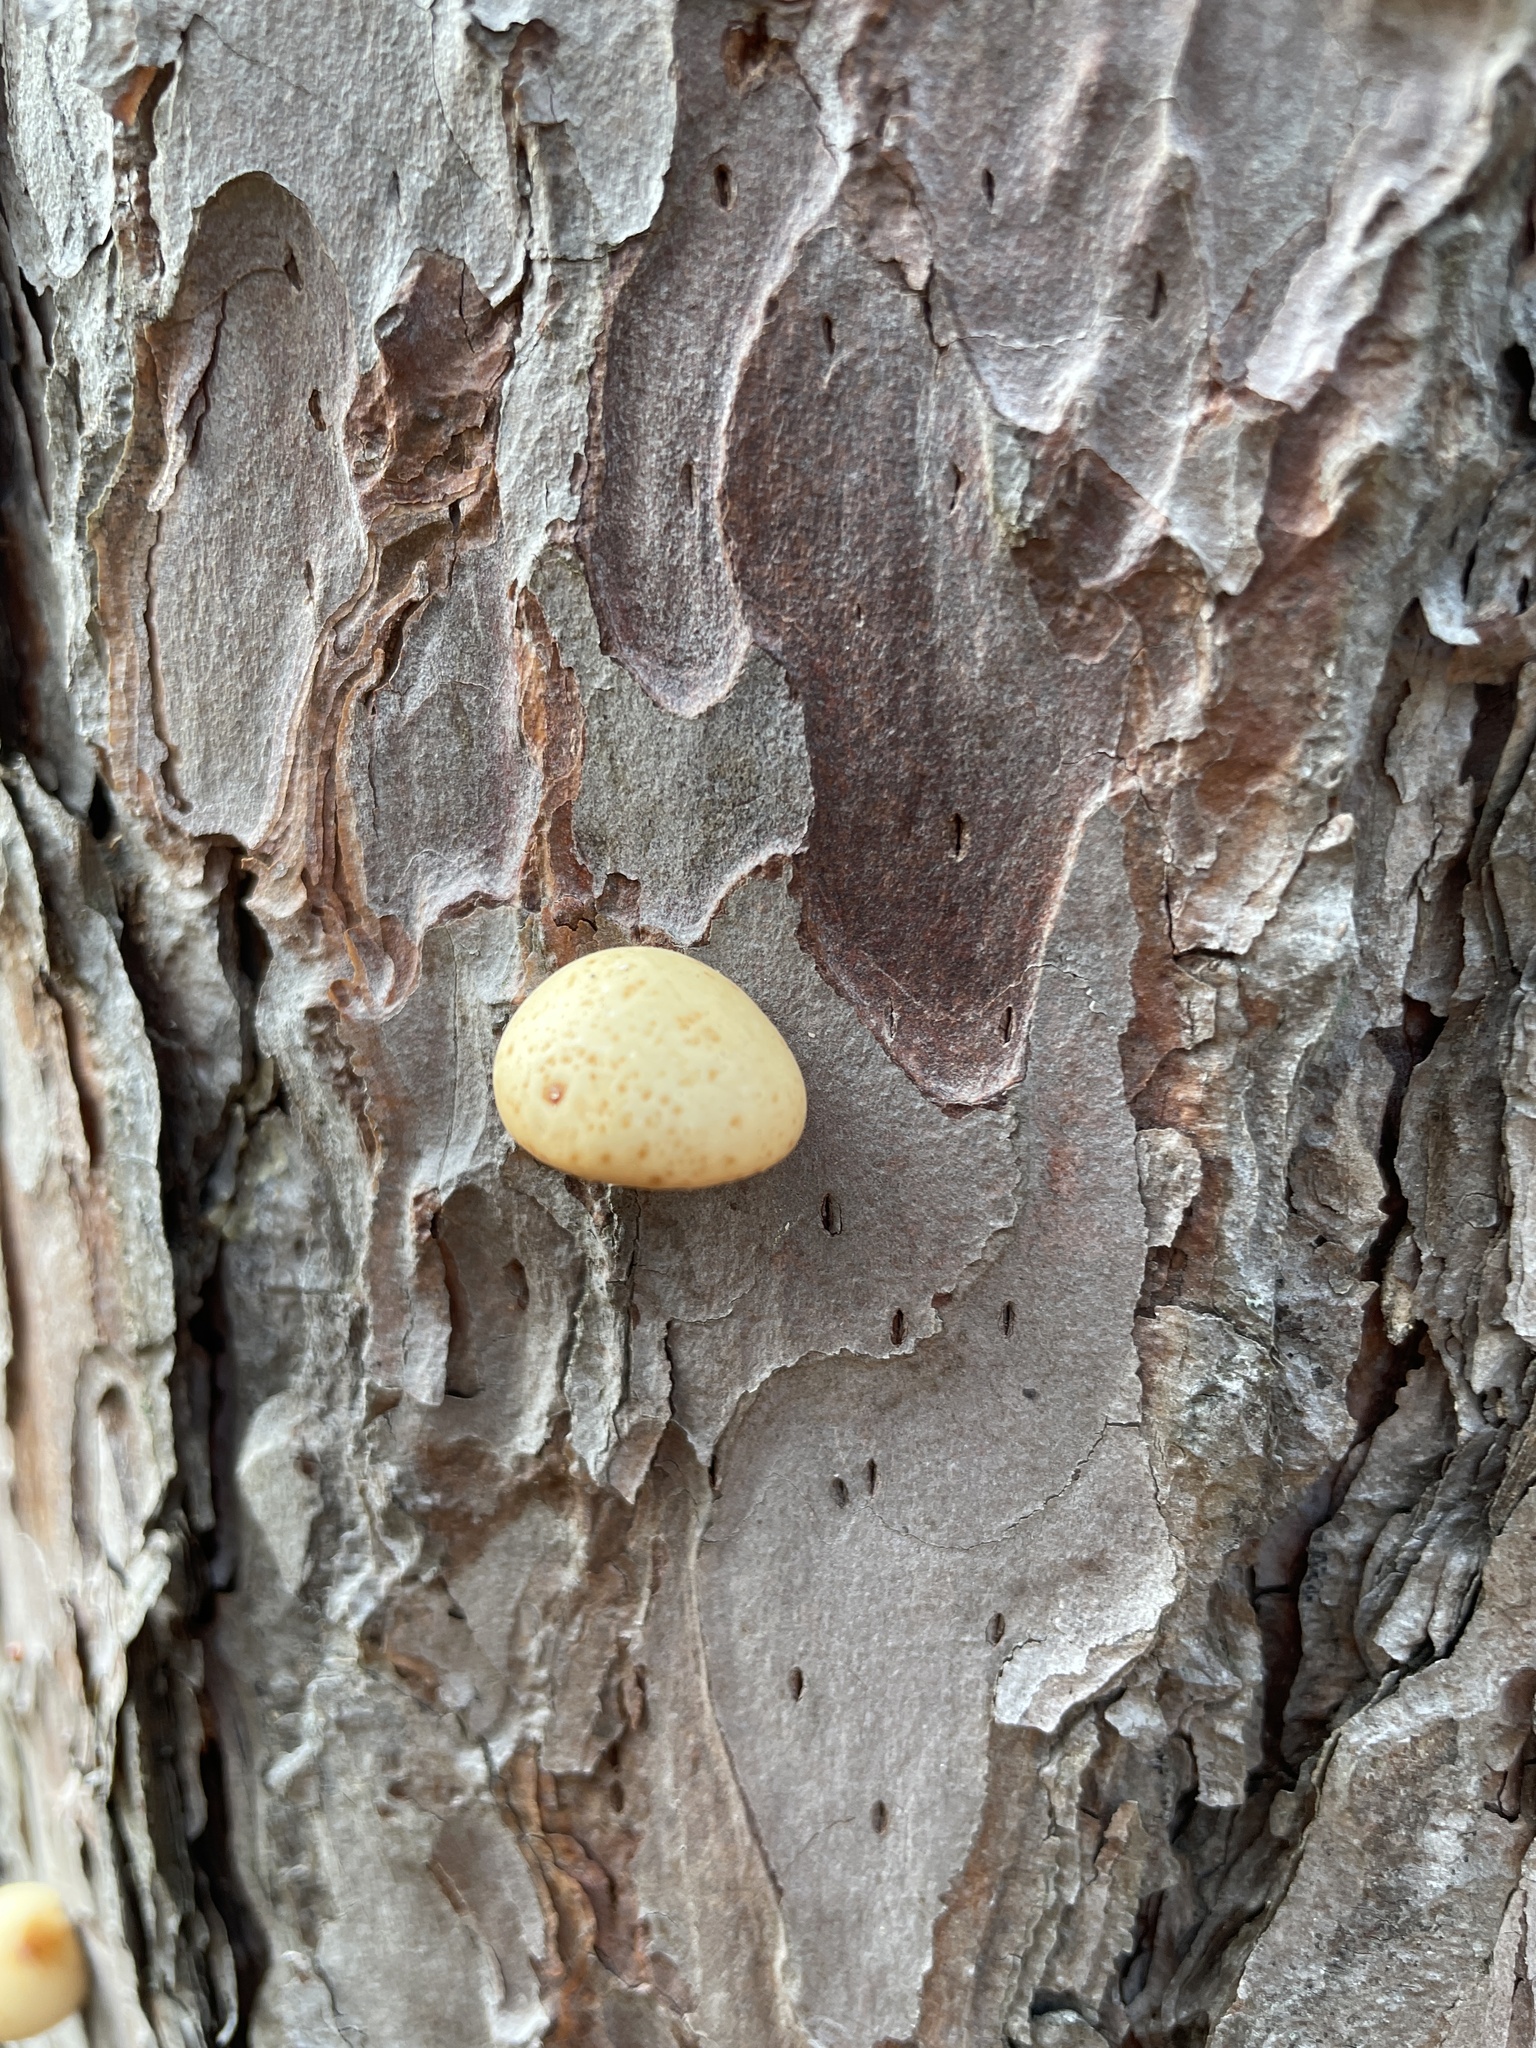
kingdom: Fungi
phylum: Basidiomycota
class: Agaricomycetes
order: Polyporales
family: Polyporaceae
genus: Cryptoporus
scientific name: Cryptoporus volvatus
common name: Veiled polypore
